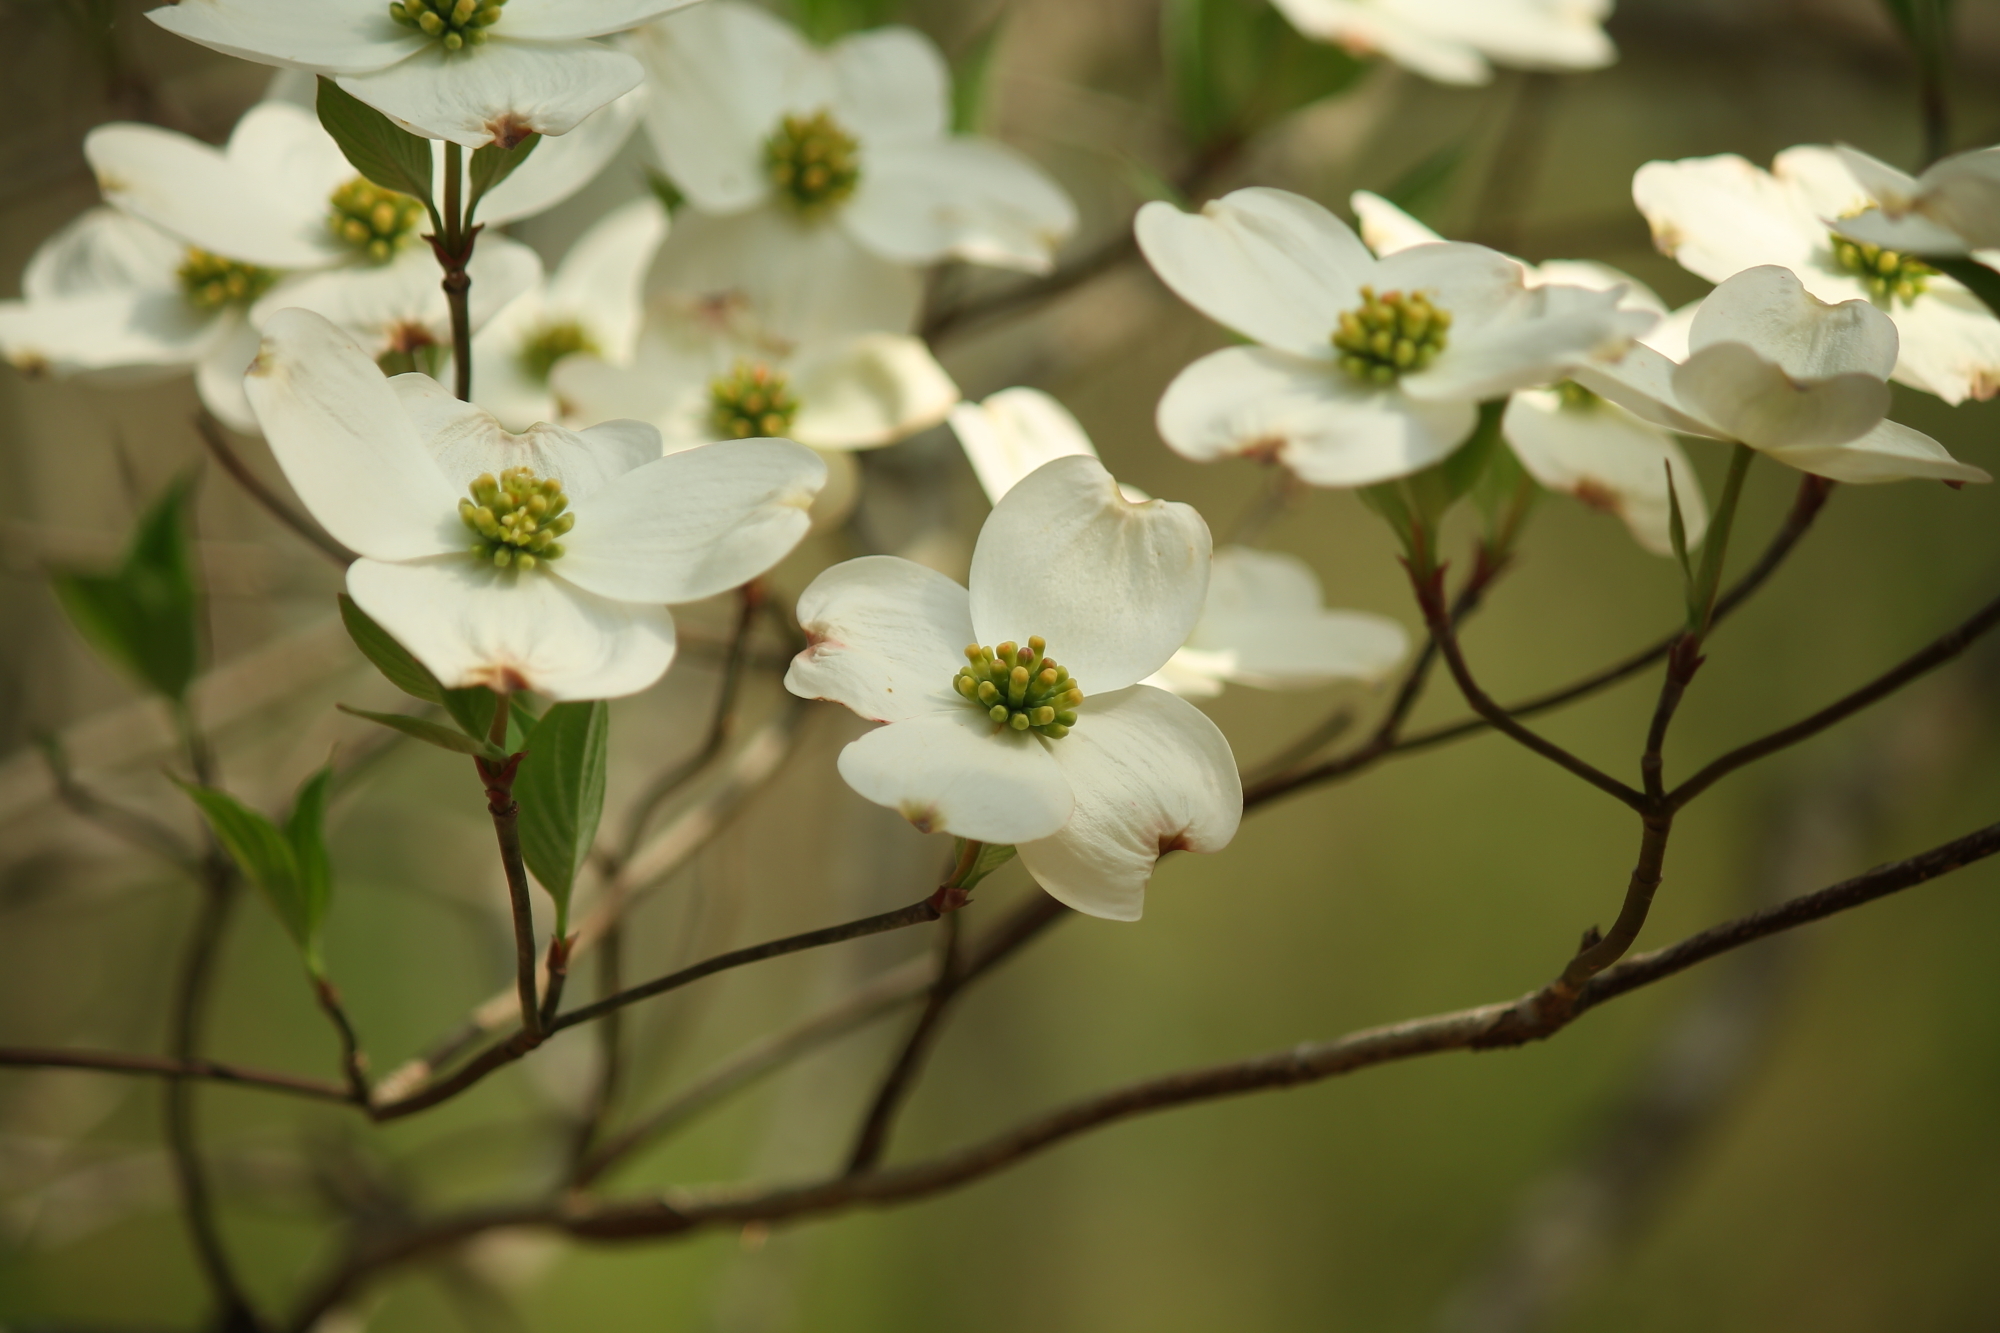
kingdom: Plantae
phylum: Tracheophyta
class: Magnoliopsida
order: Cornales
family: Cornaceae
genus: Cornus
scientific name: Cornus florida
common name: Flowering dogwood
